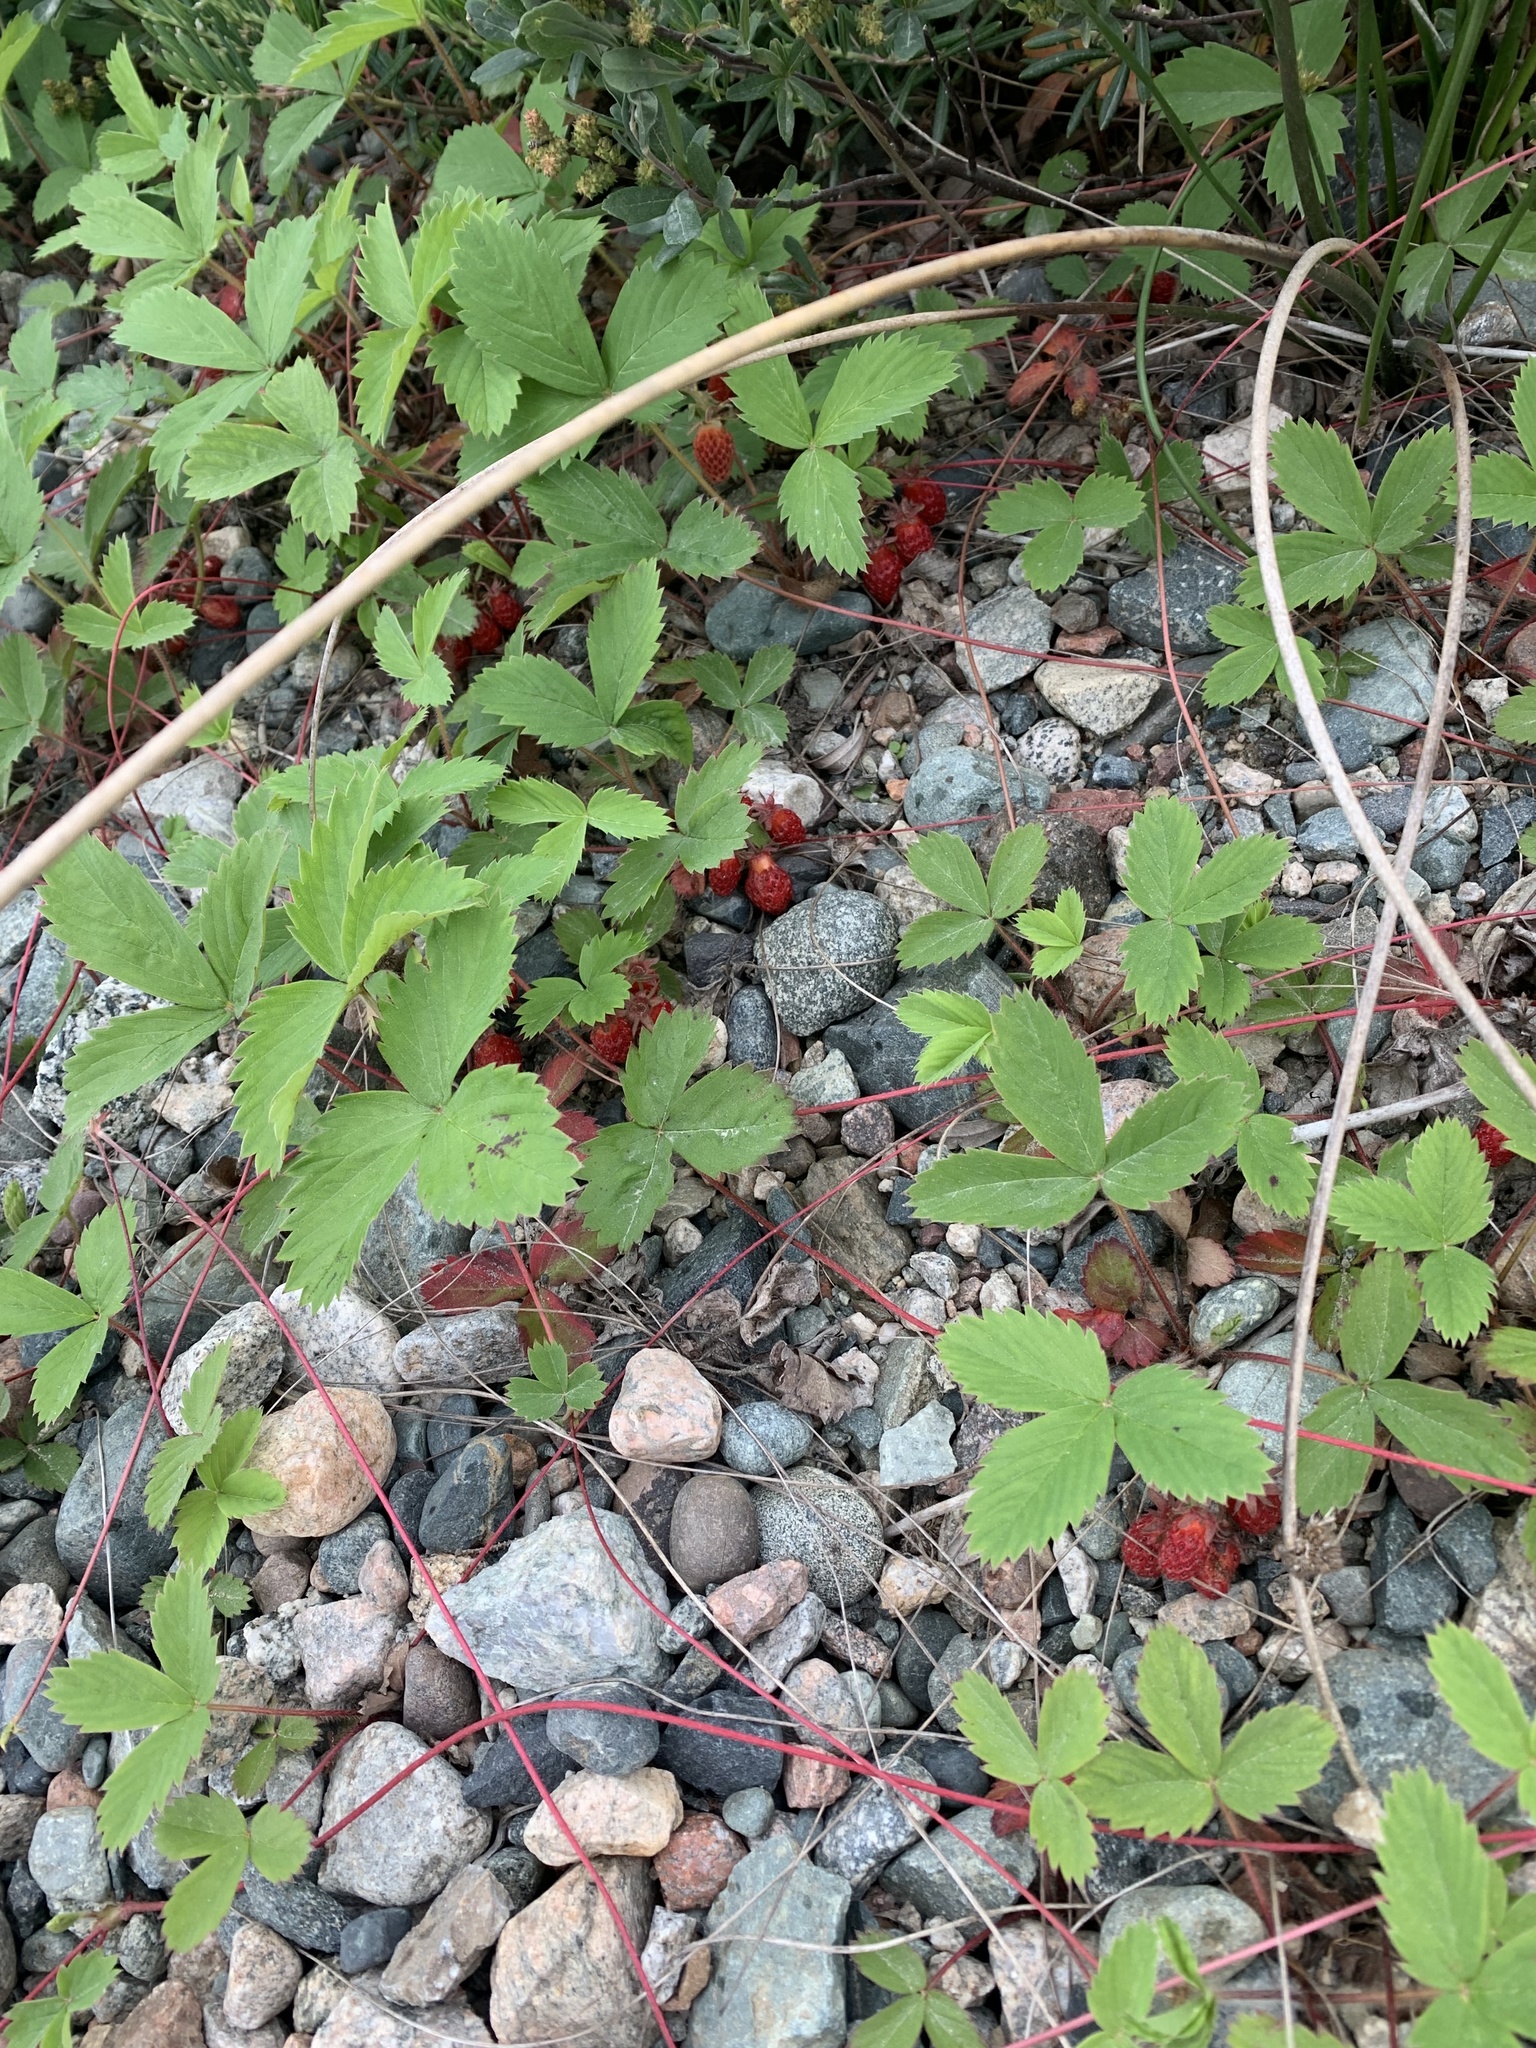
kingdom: Plantae
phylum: Tracheophyta
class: Magnoliopsida
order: Rosales
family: Rosaceae
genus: Fragaria
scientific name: Fragaria virginiana
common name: Thickleaved wild strawberry
